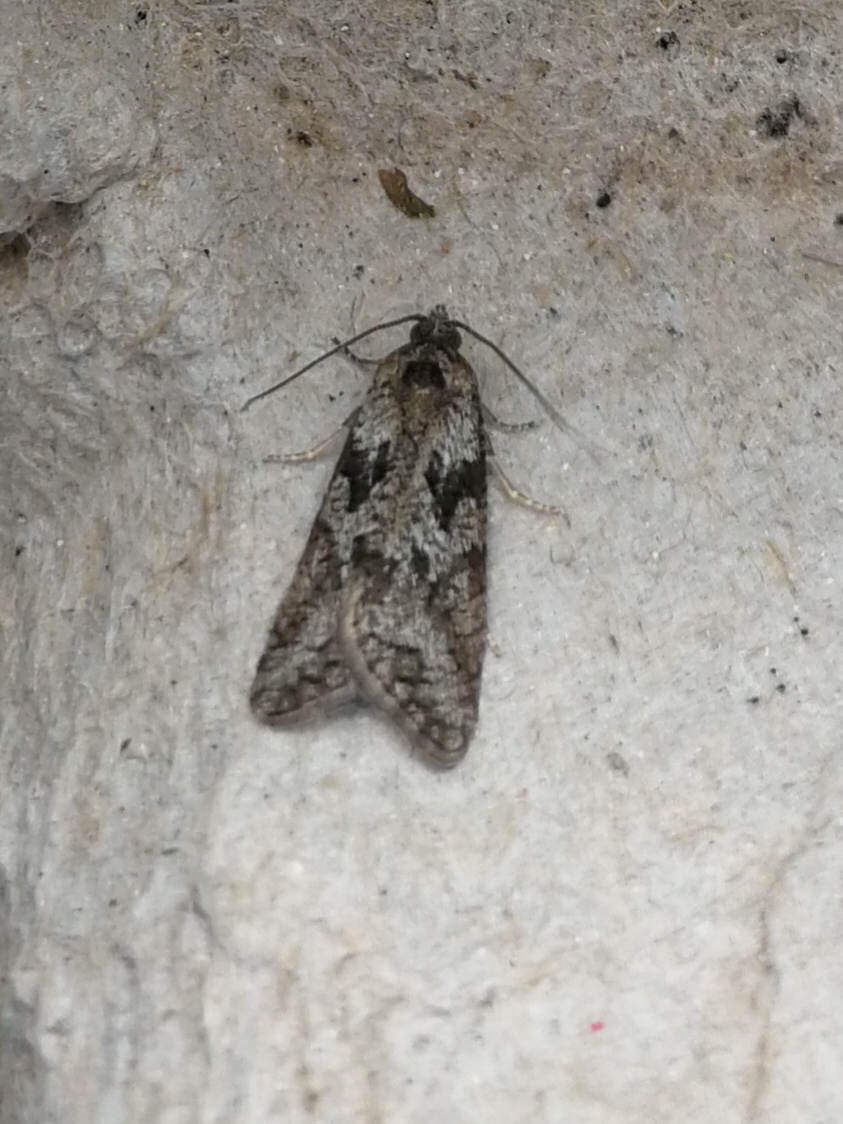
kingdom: Animalia
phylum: Arthropoda
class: Insecta
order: Lepidoptera
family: Tortricidae
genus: Cnephasia
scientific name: Cnephasia cupressivorana
